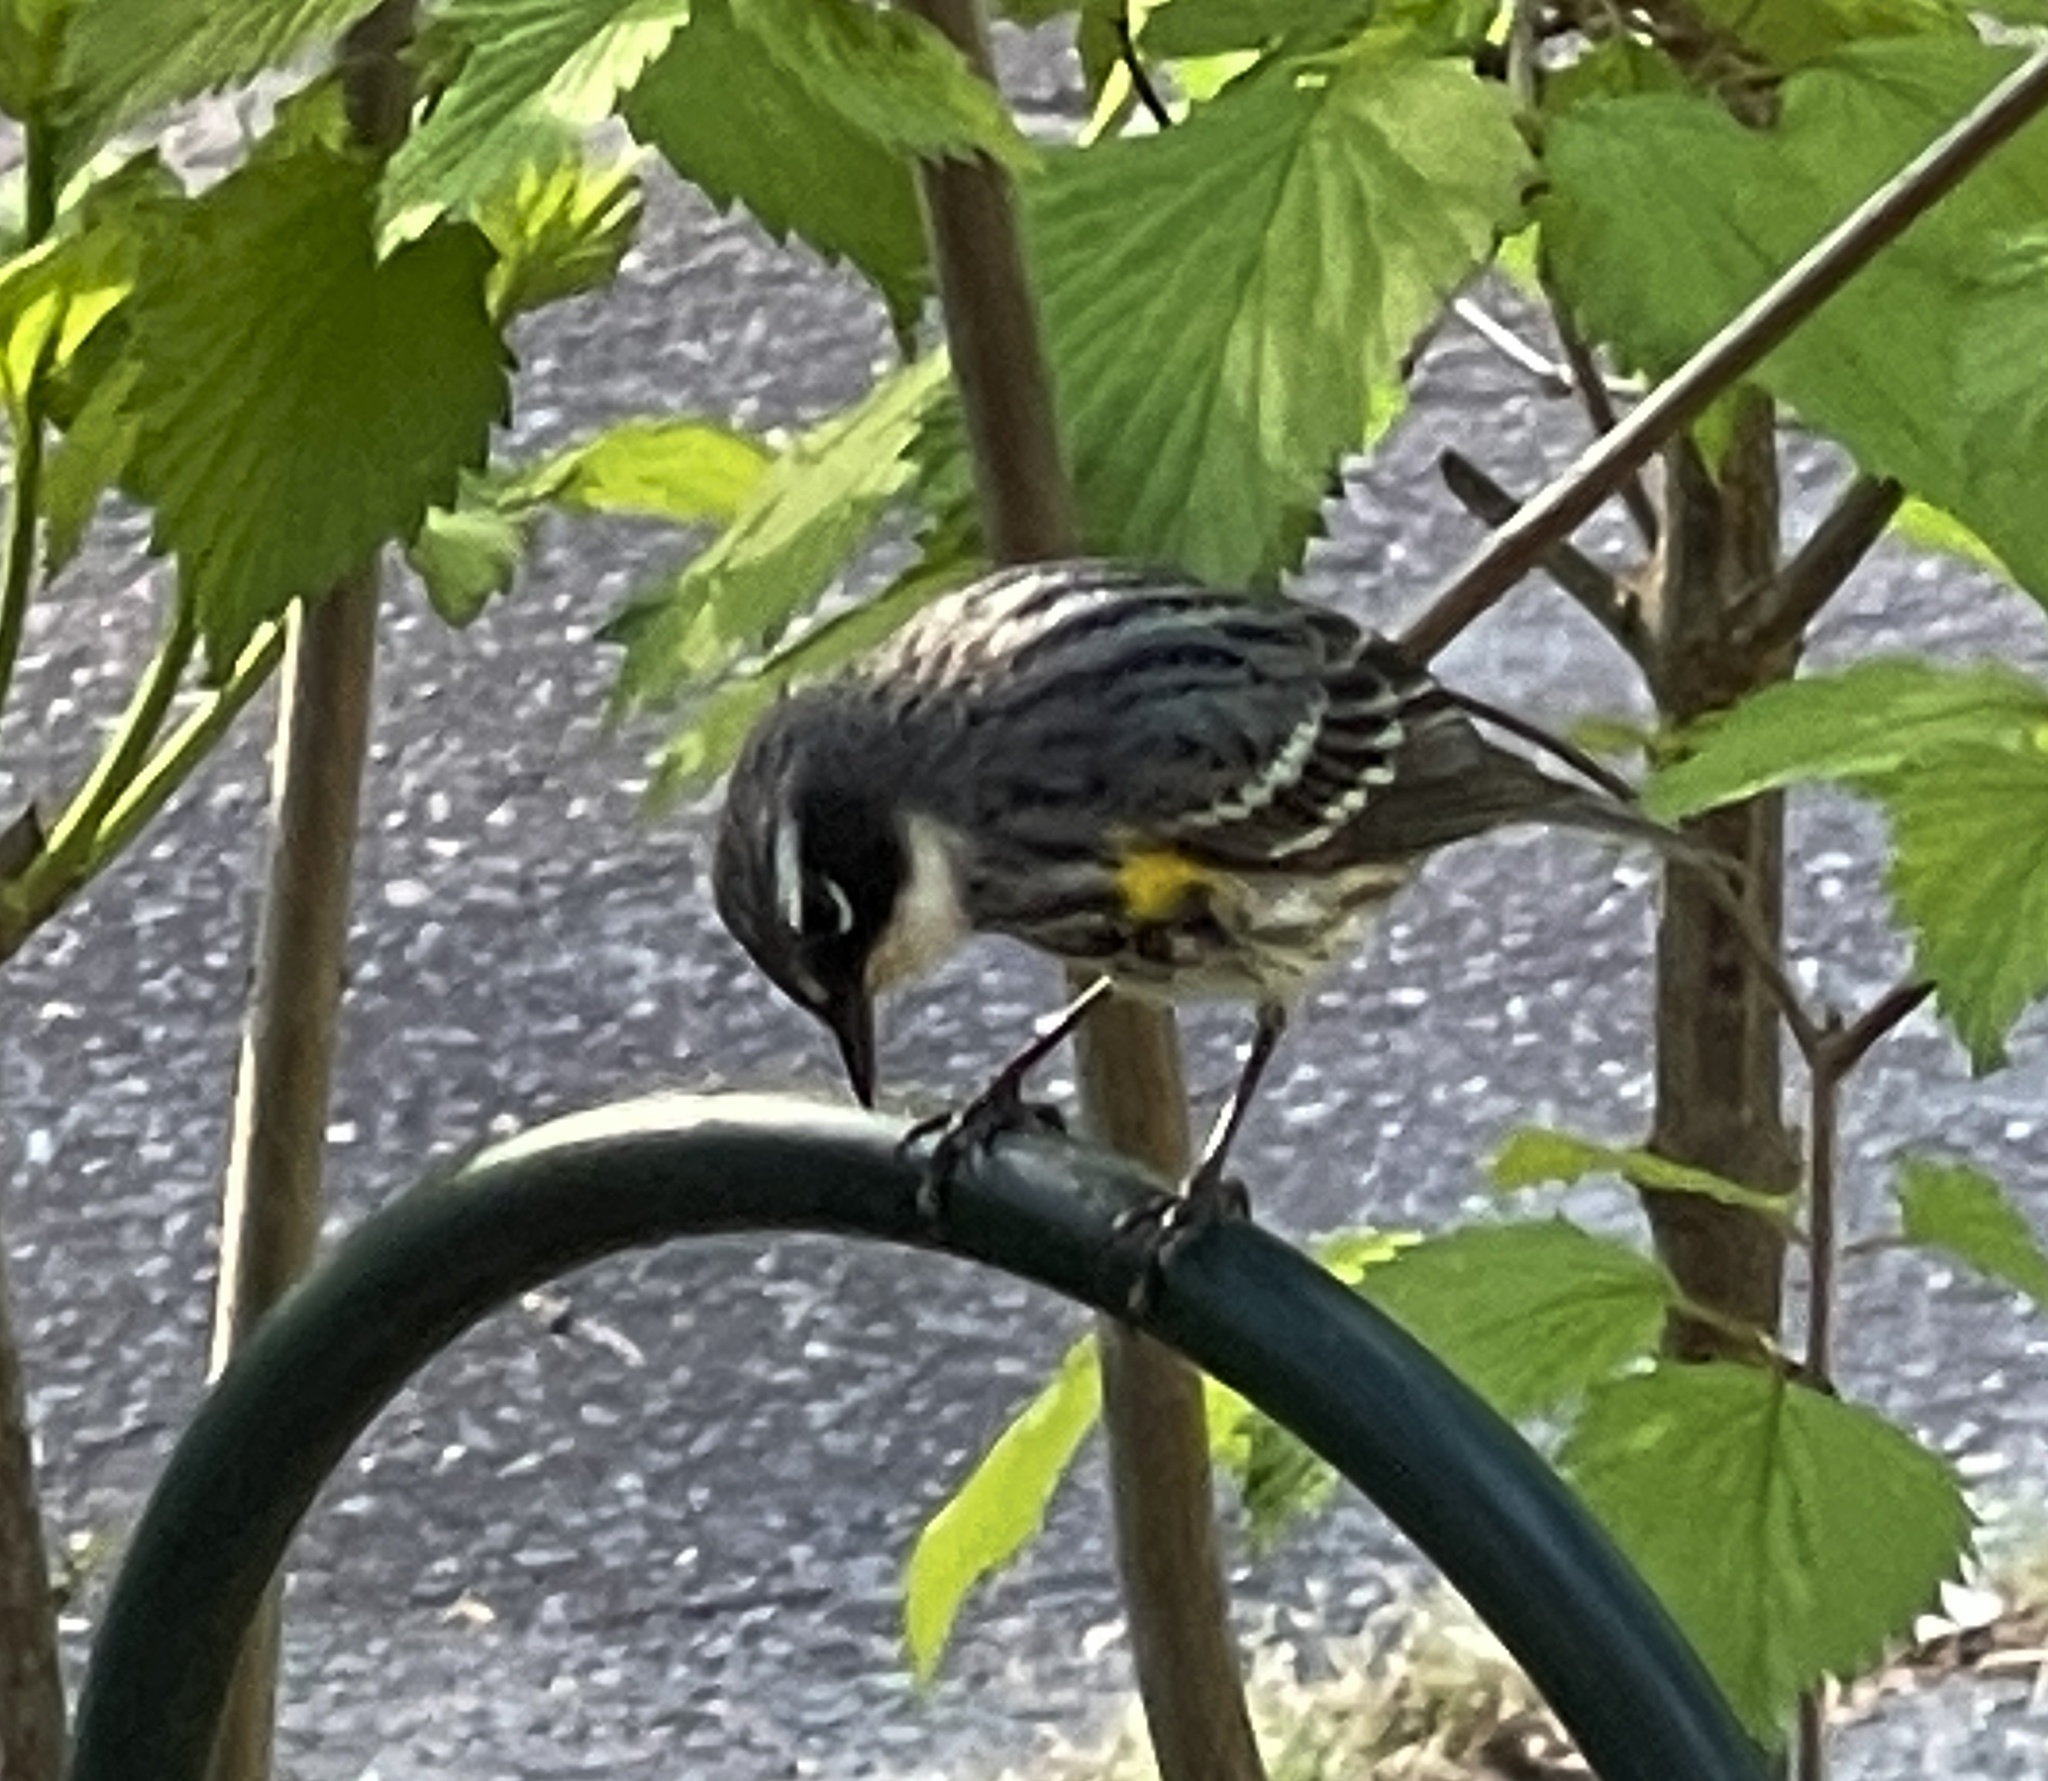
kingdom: Animalia
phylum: Chordata
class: Aves
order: Passeriformes
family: Parulidae
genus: Setophaga
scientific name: Setophaga coronata
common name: Myrtle warbler
